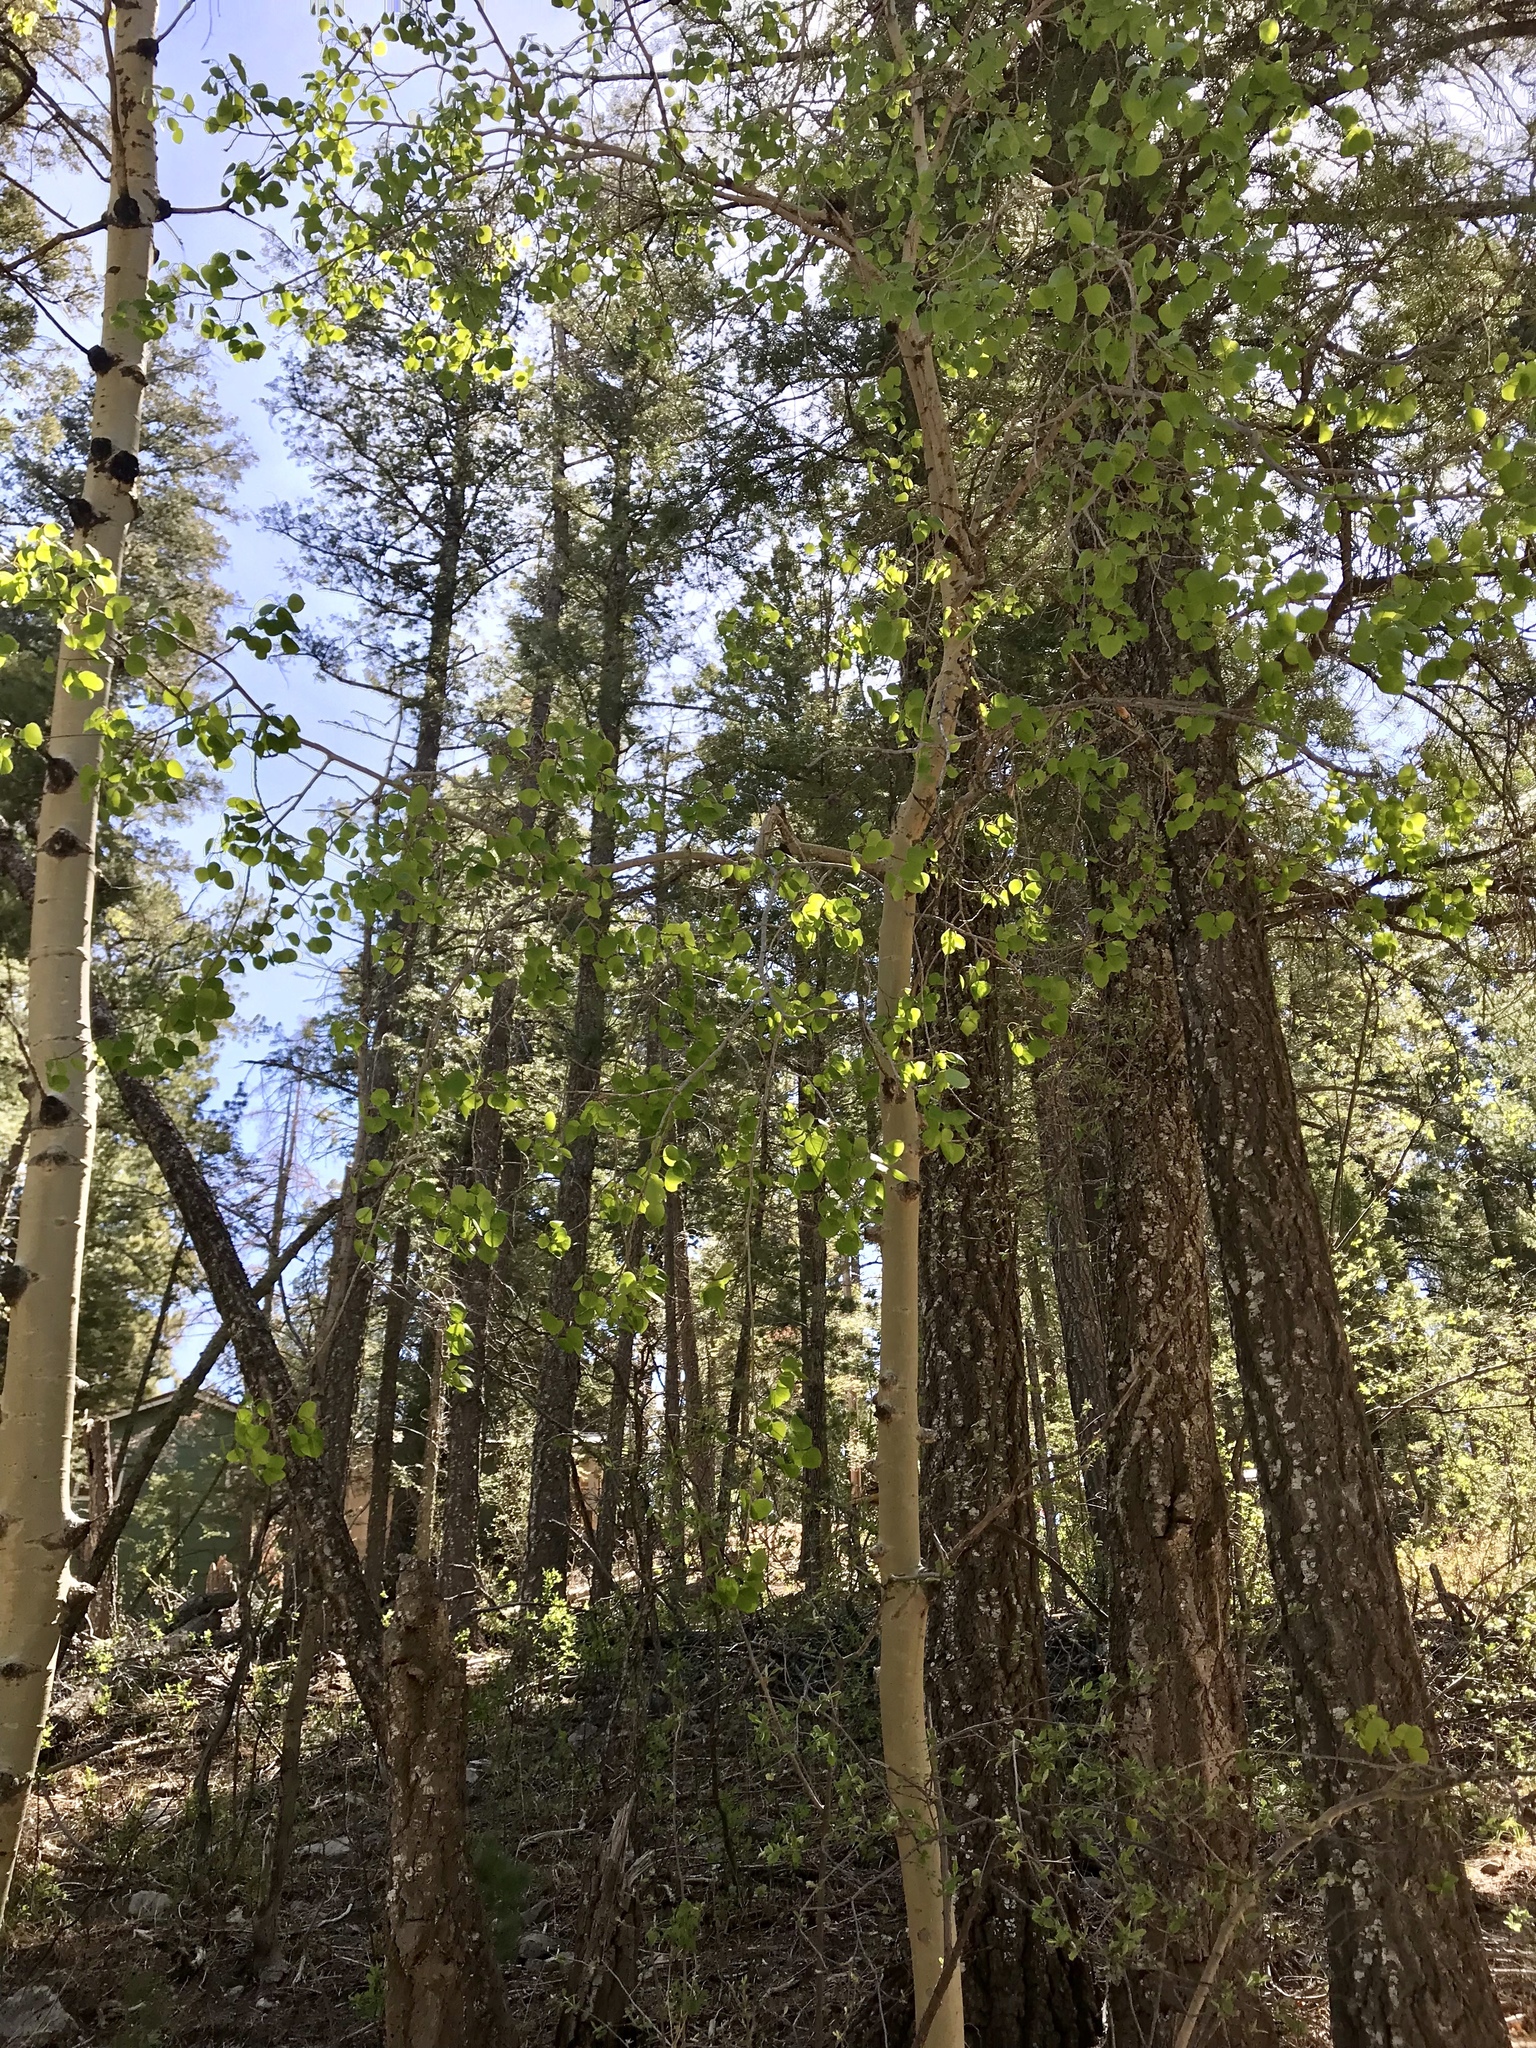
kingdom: Plantae
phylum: Tracheophyta
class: Magnoliopsida
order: Malpighiales
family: Salicaceae
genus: Populus
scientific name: Populus tremuloides
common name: Quaking aspen
